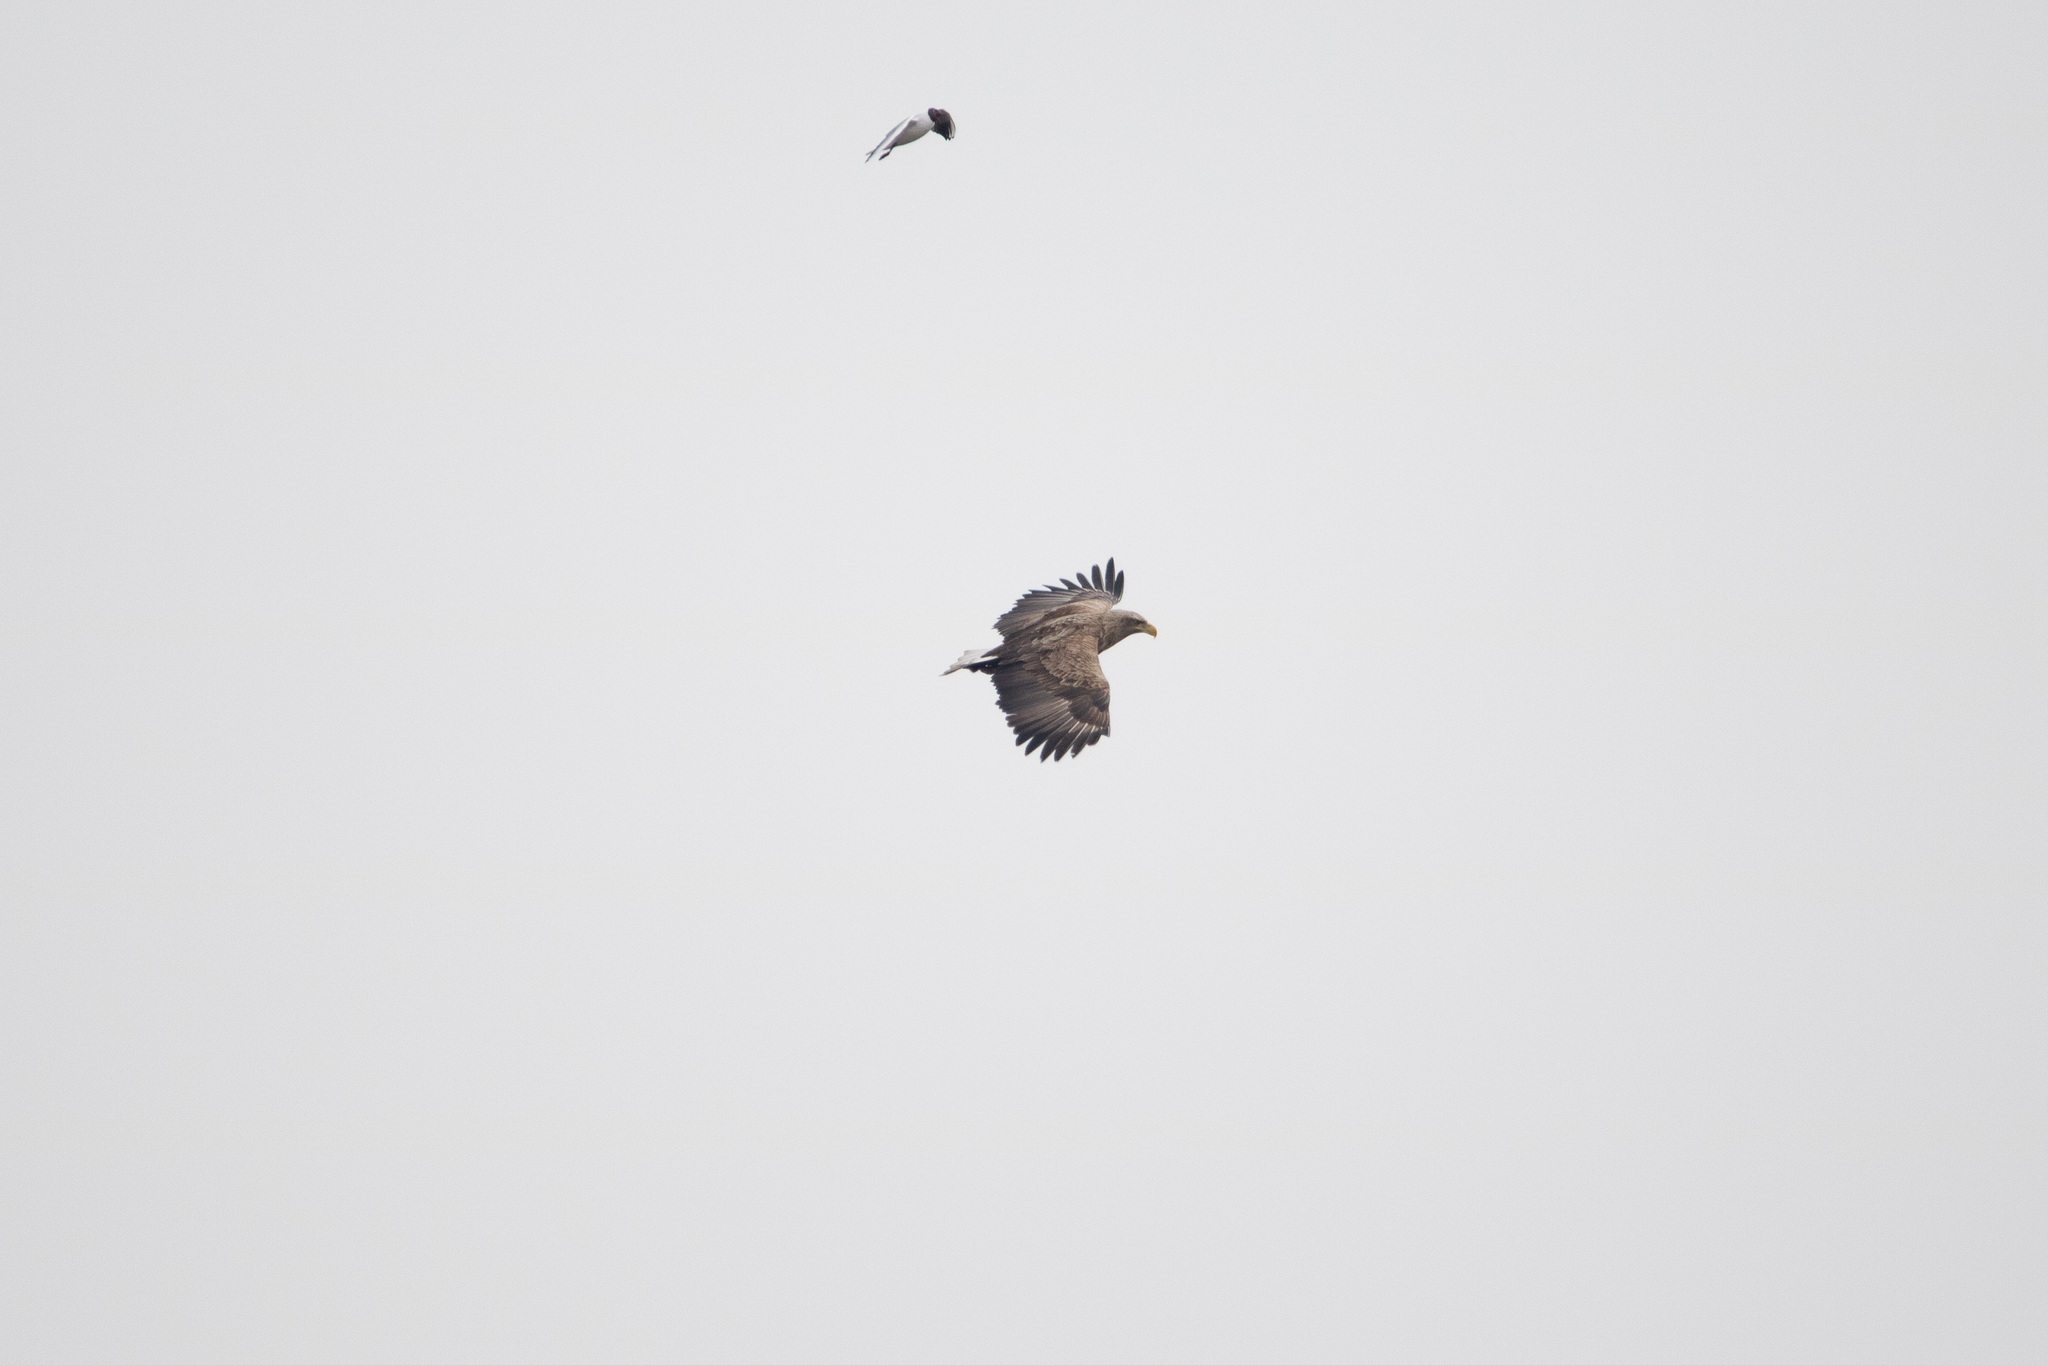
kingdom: Animalia
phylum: Chordata
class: Aves
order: Accipitriformes
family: Accipitridae
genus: Haliaeetus
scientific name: Haliaeetus albicilla
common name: White-tailed eagle
